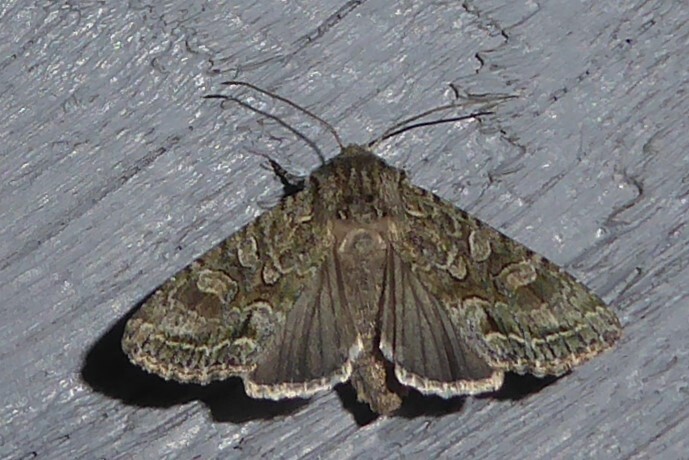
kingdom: Animalia
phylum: Arthropoda
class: Insecta
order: Lepidoptera
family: Noctuidae
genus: Ichneutica
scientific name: Ichneutica mutans
